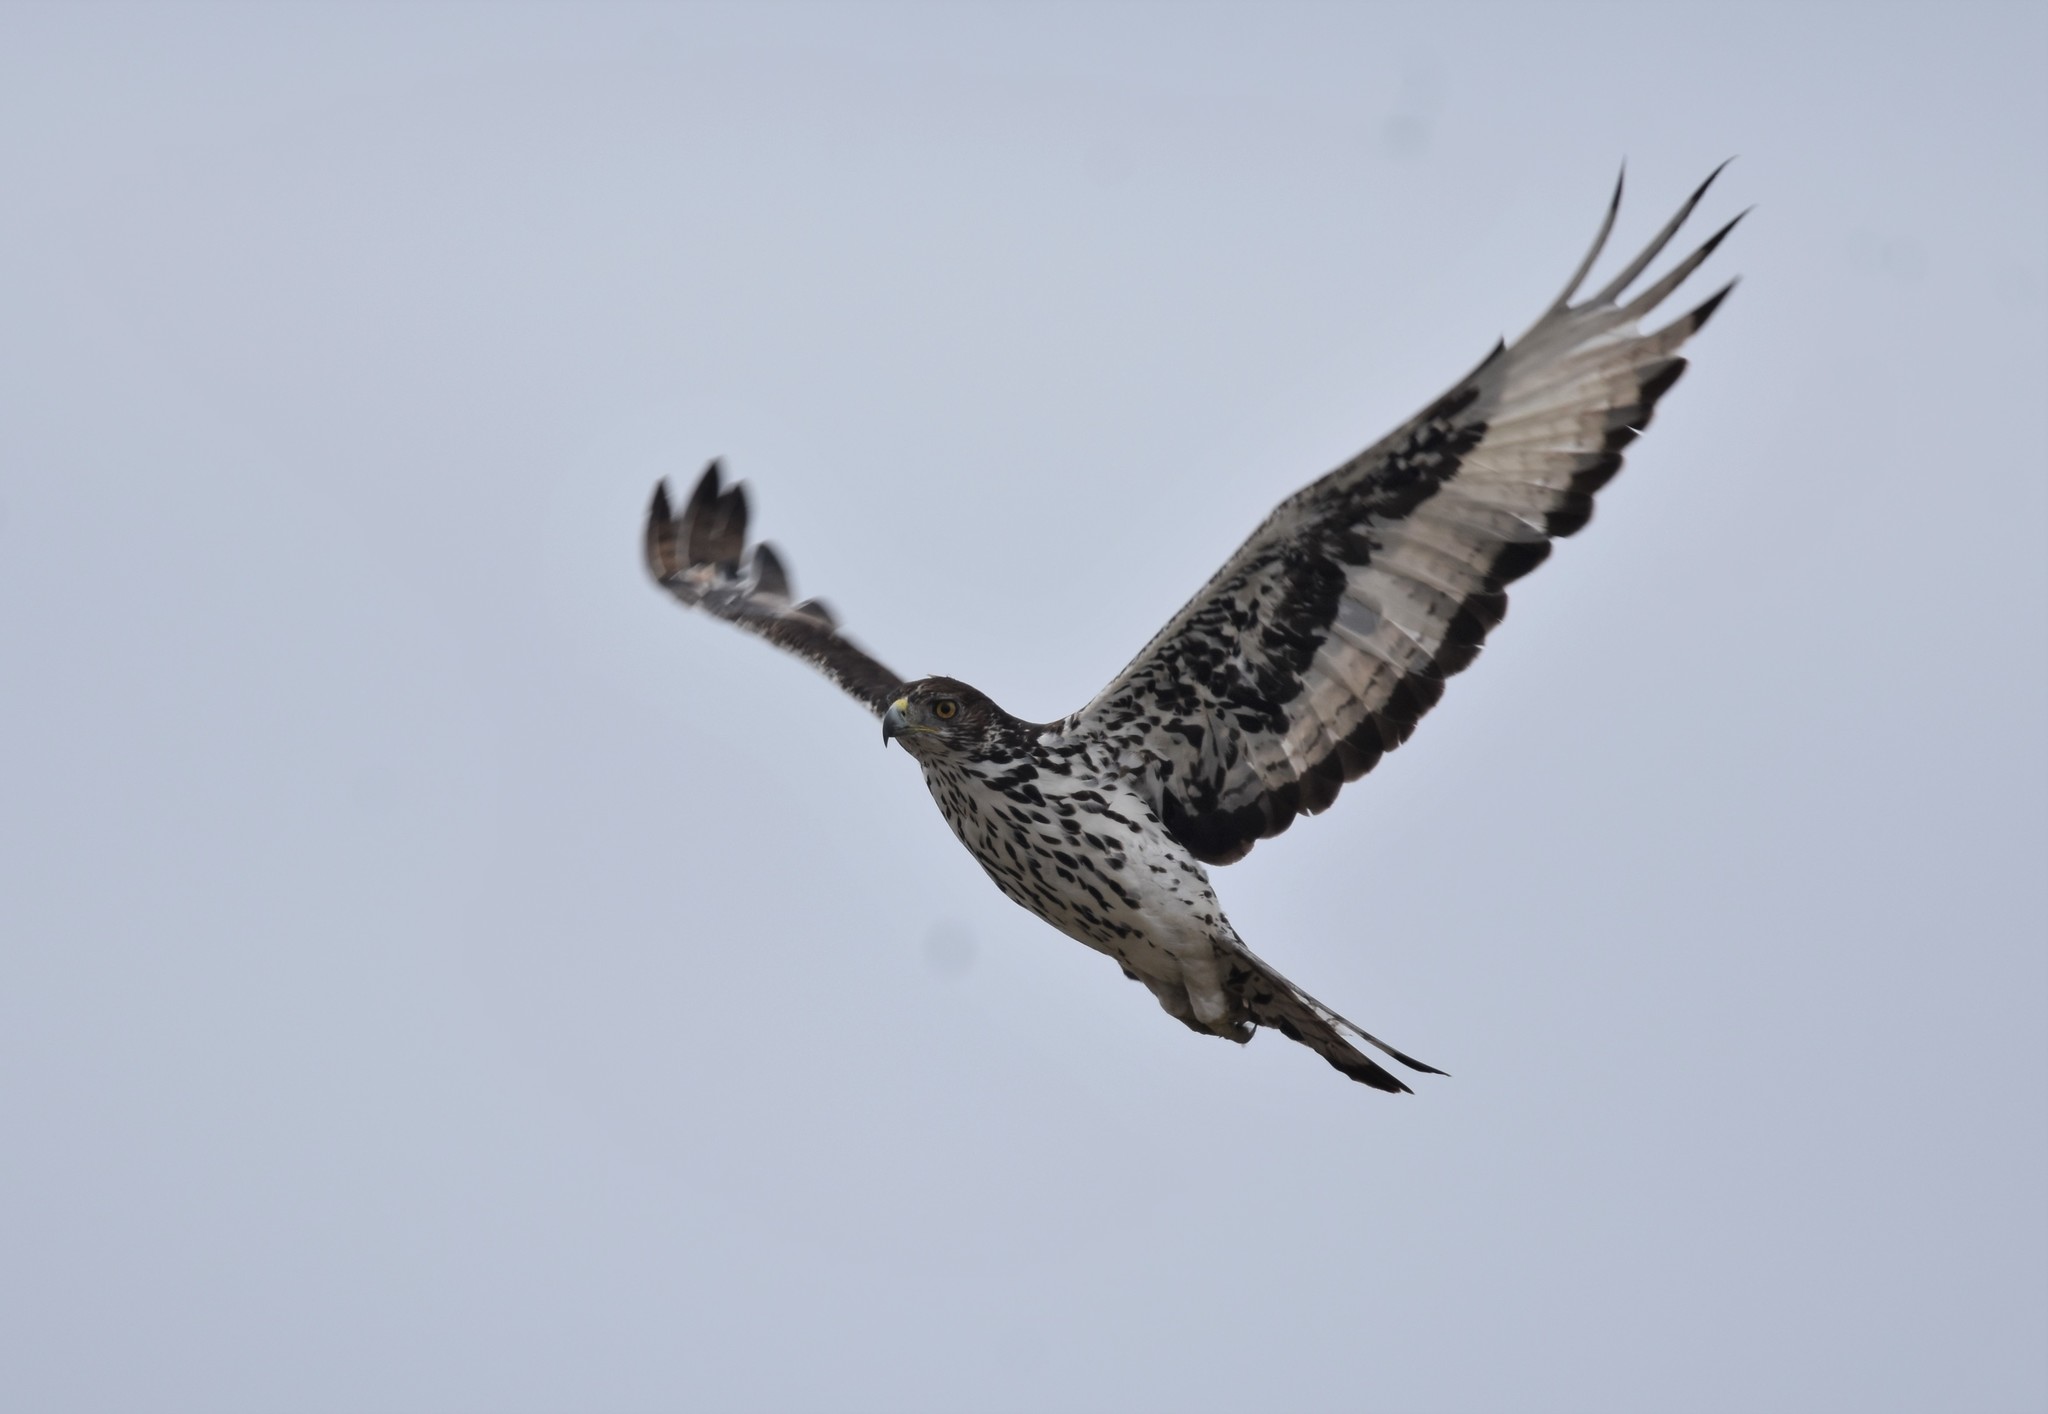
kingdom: Animalia
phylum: Chordata
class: Aves
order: Accipitriformes
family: Accipitridae
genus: Aquila
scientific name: Aquila spilogaster
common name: African hawk-eagle
